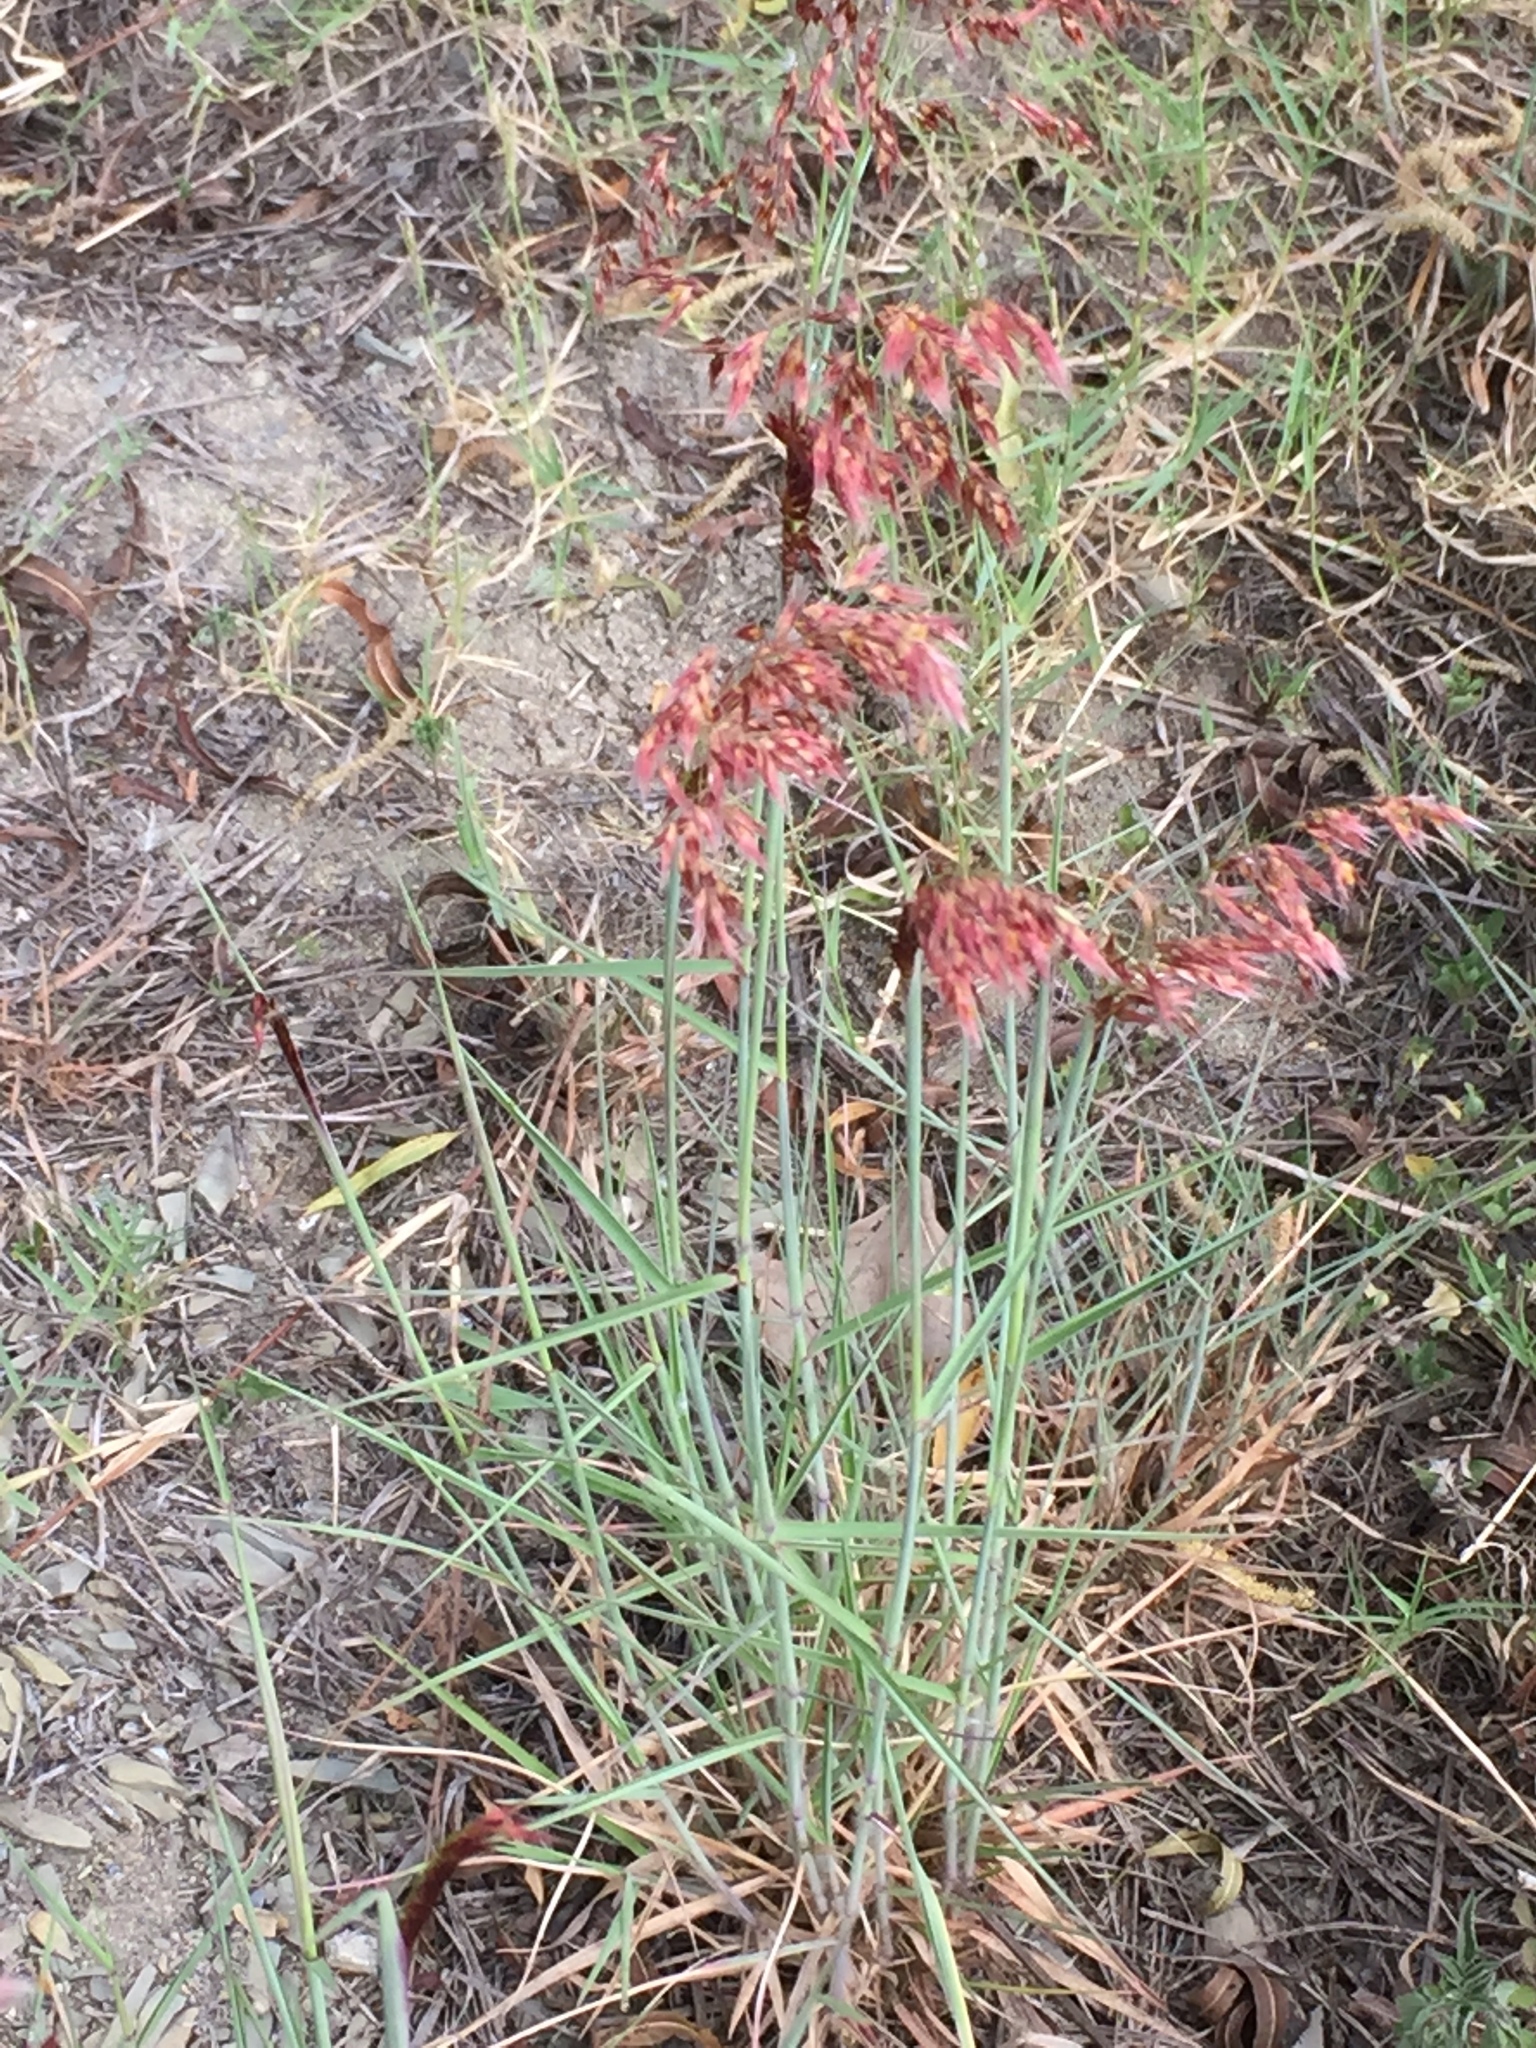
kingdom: Plantae
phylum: Tracheophyta
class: Liliopsida
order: Poales
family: Poaceae
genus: Melinis
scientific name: Melinis repens
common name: Rose natal grass
